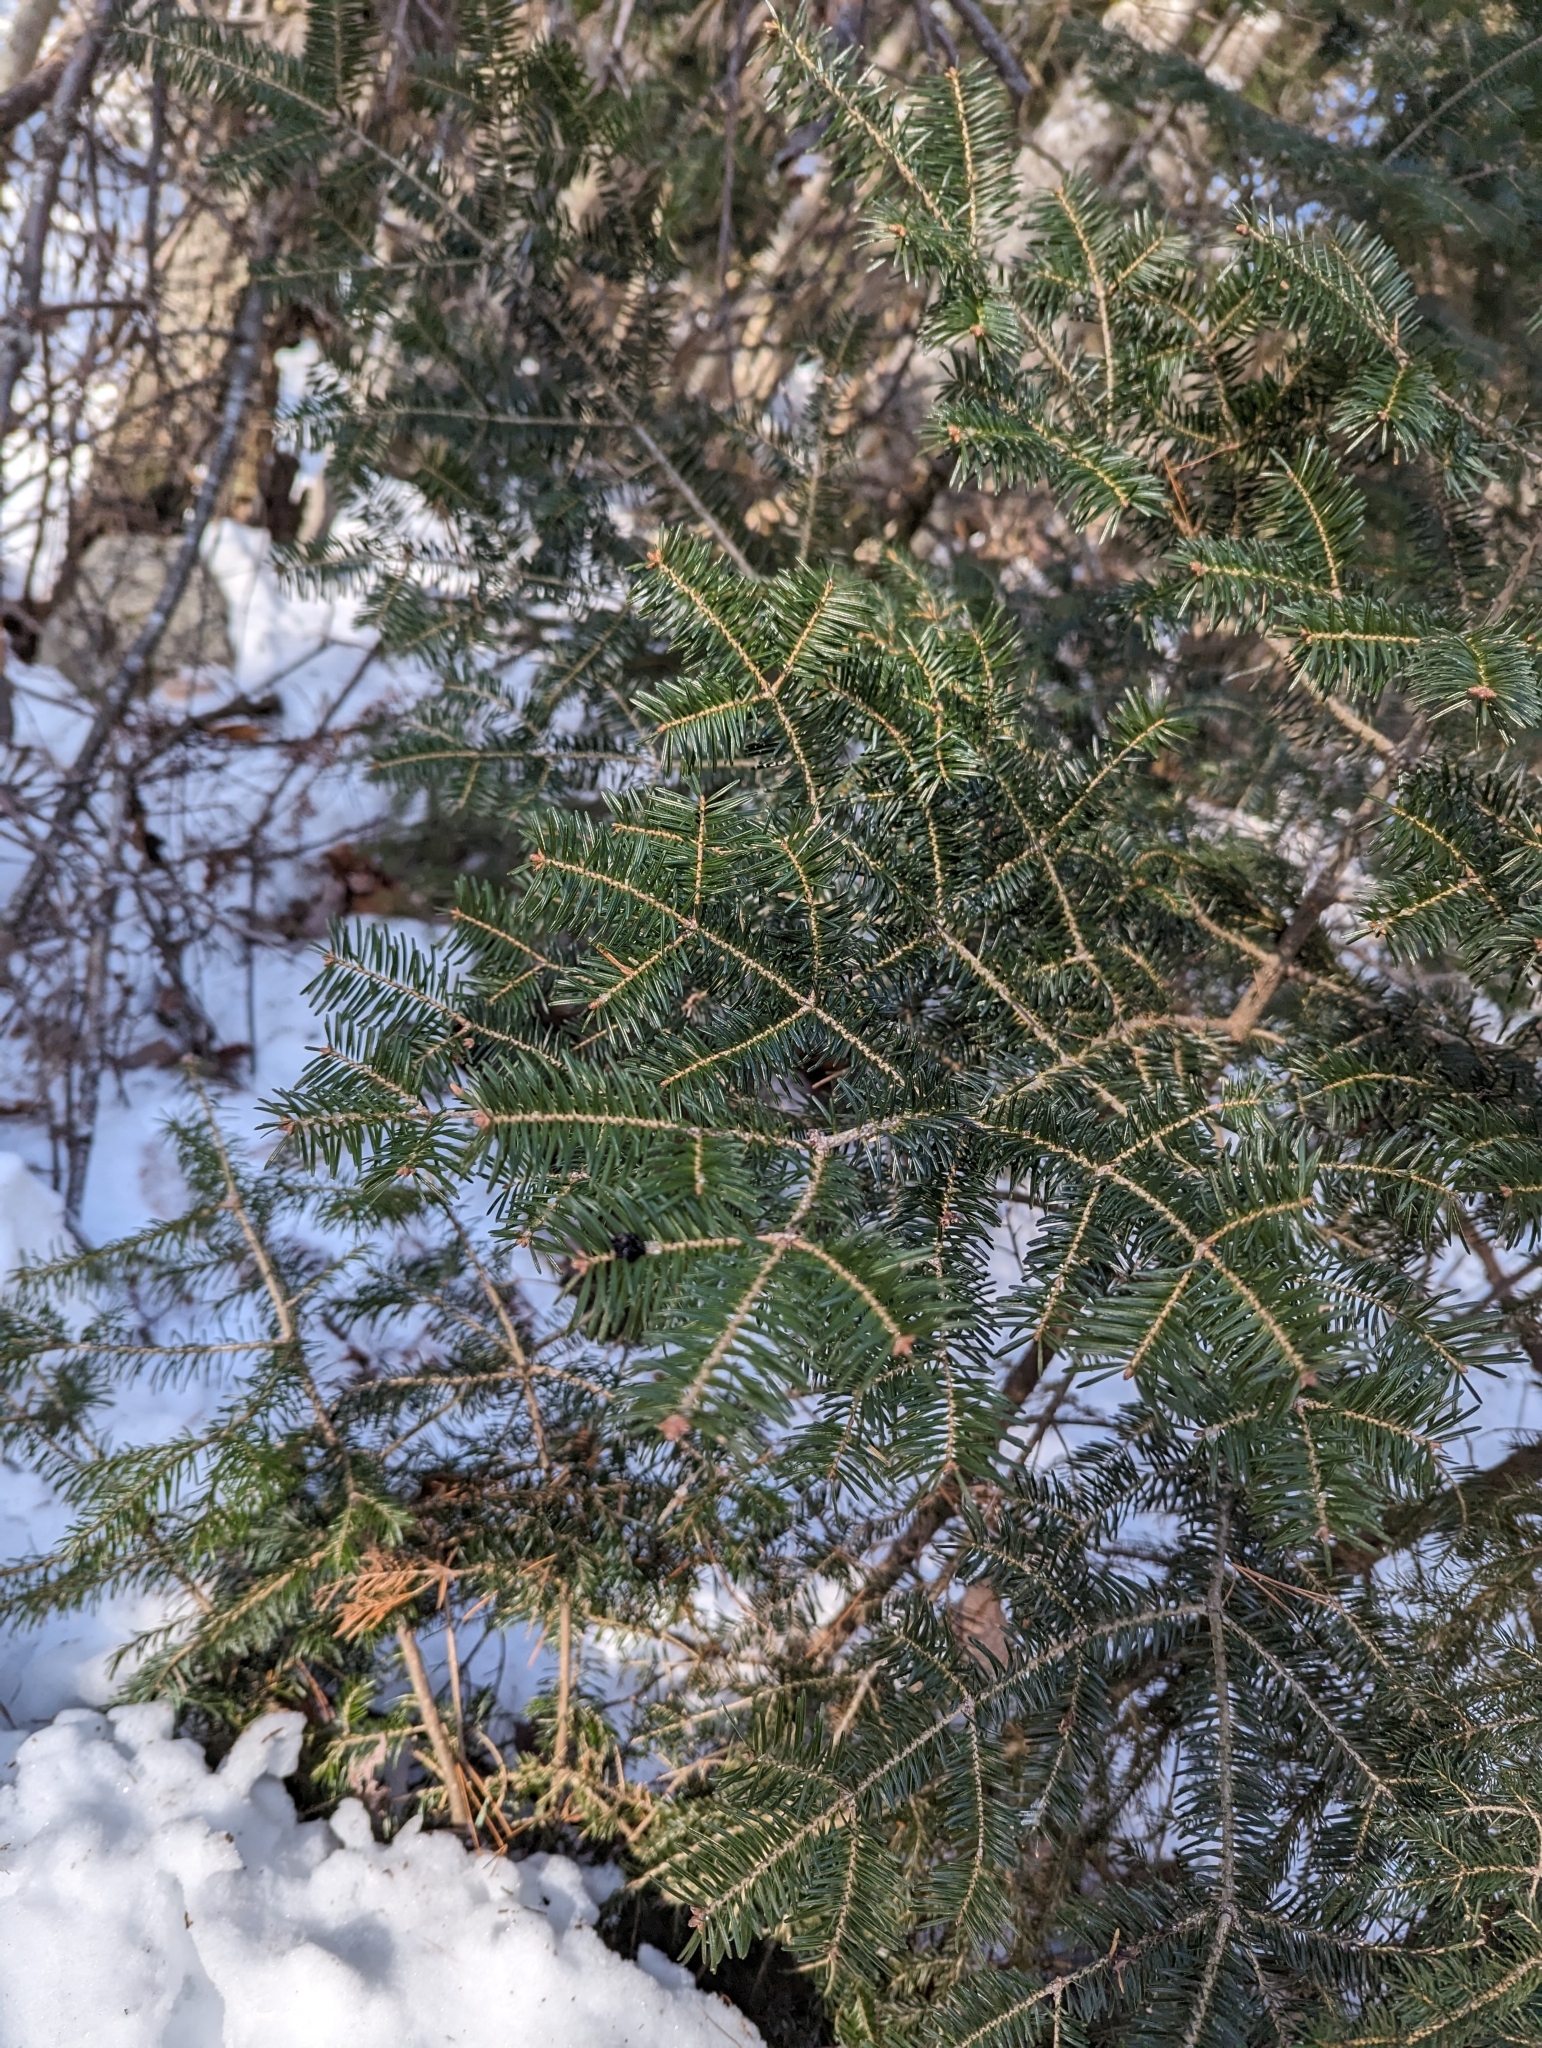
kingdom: Plantae
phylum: Tracheophyta
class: Pinopsida
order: Pinales
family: Pinaceae
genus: Abies
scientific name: Abies balsamea
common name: Balsam fir
